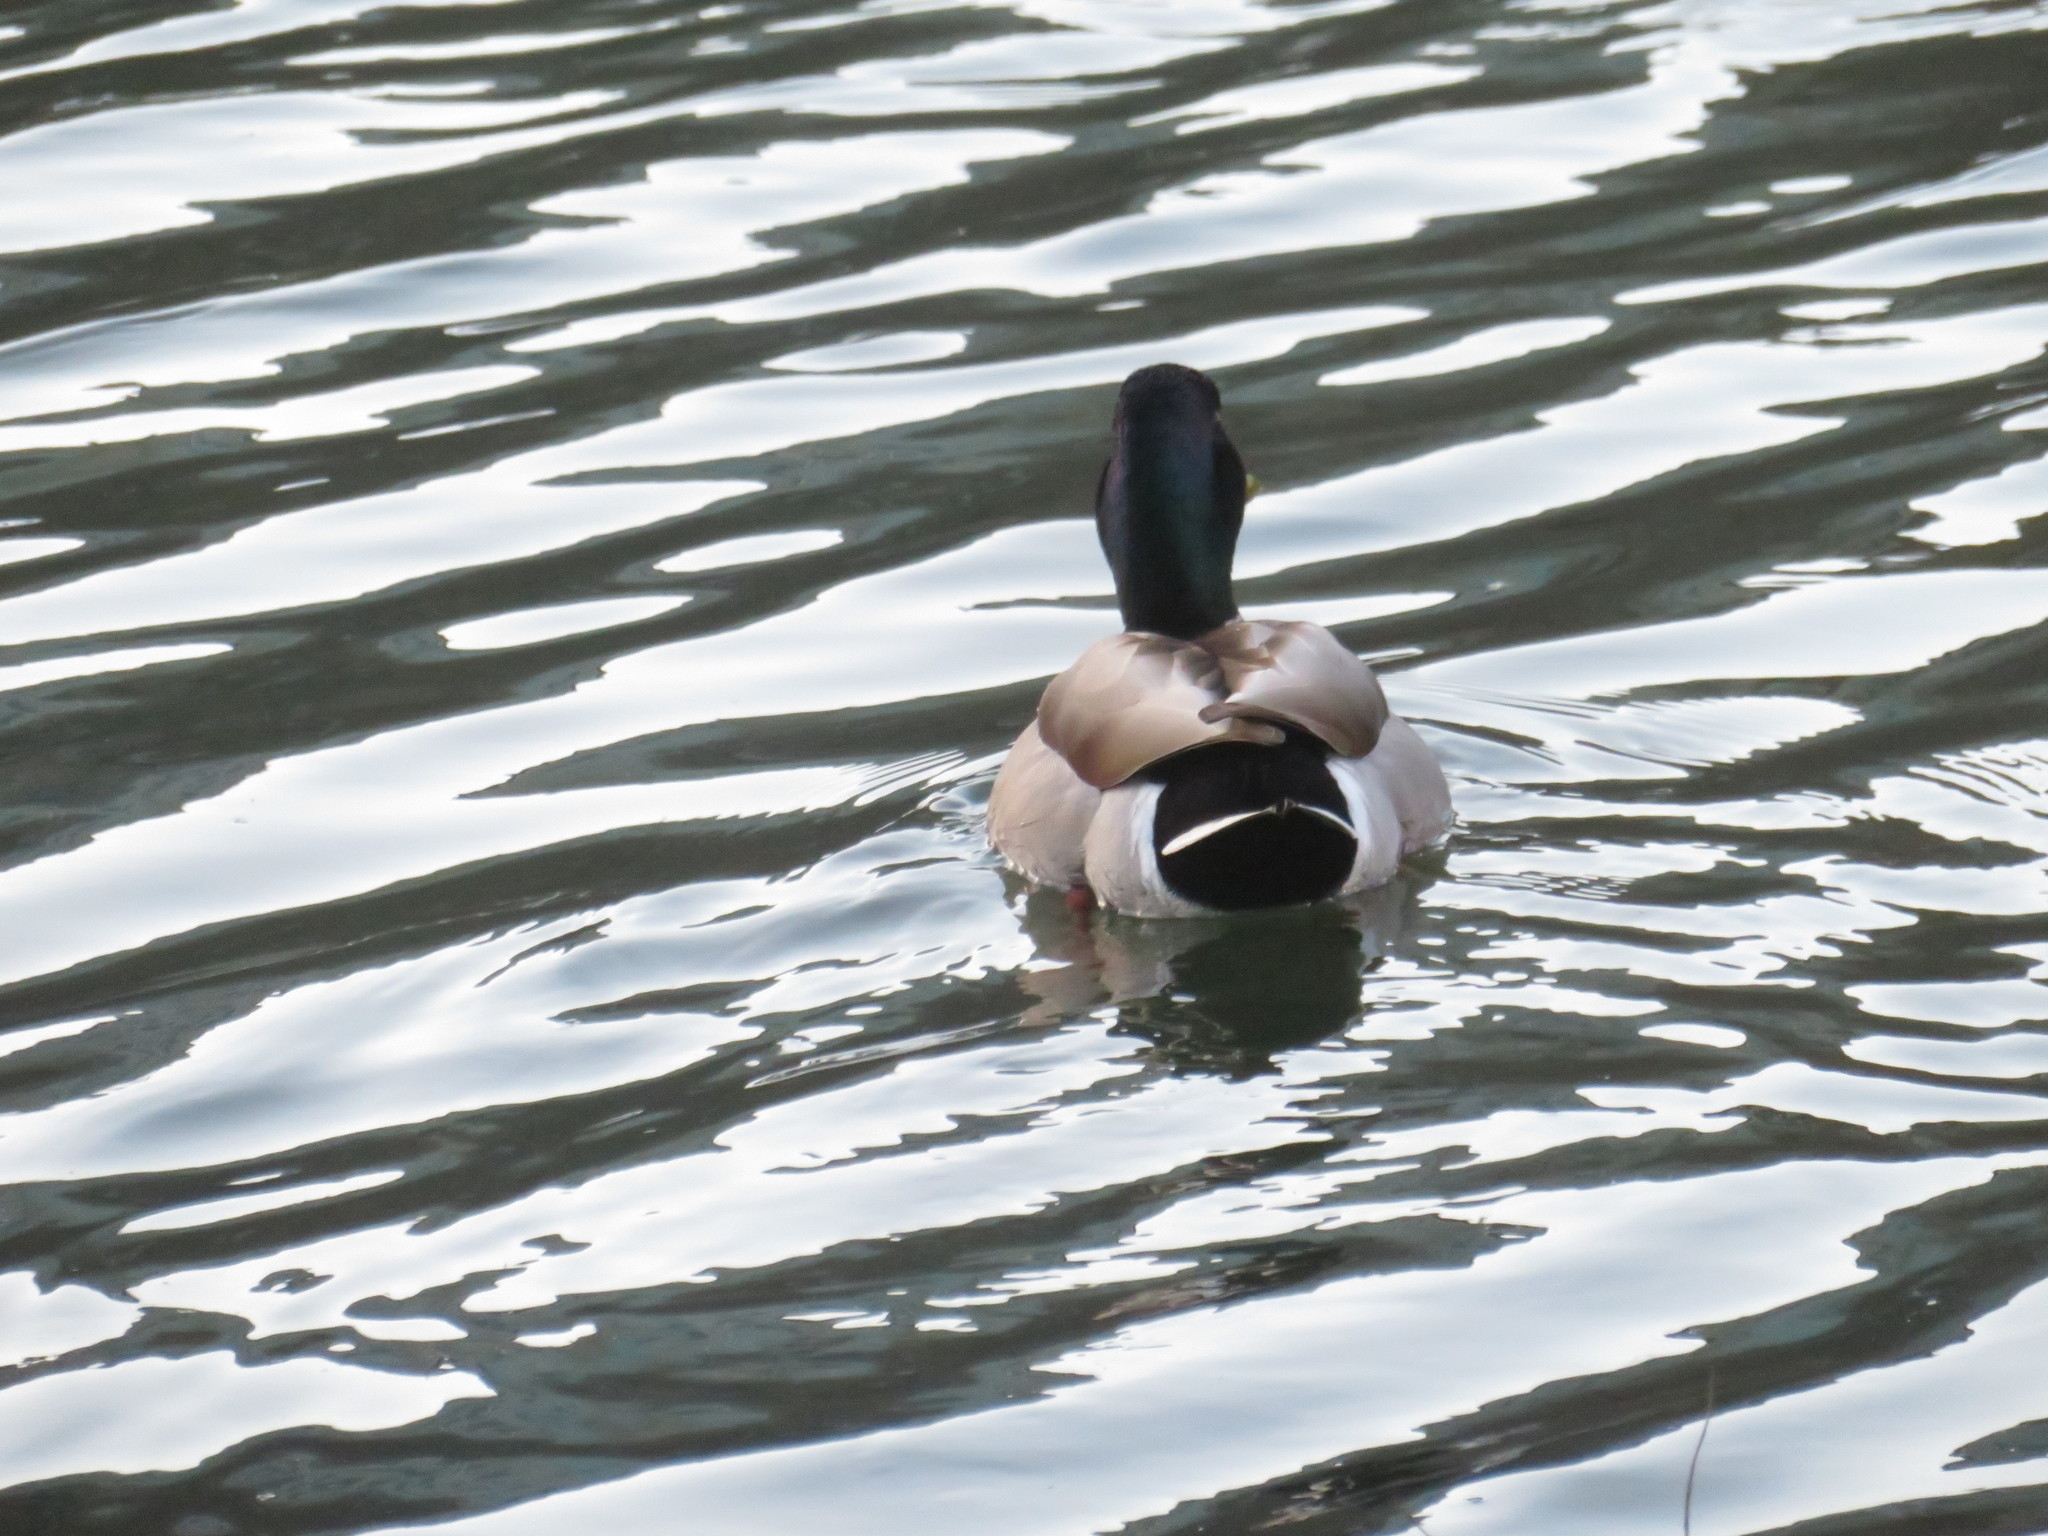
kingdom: Animalia
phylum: Chordata
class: Aves
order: Anseriformes
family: Anatidae
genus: Anas
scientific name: Anas platyrhynchos
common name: Mallard
